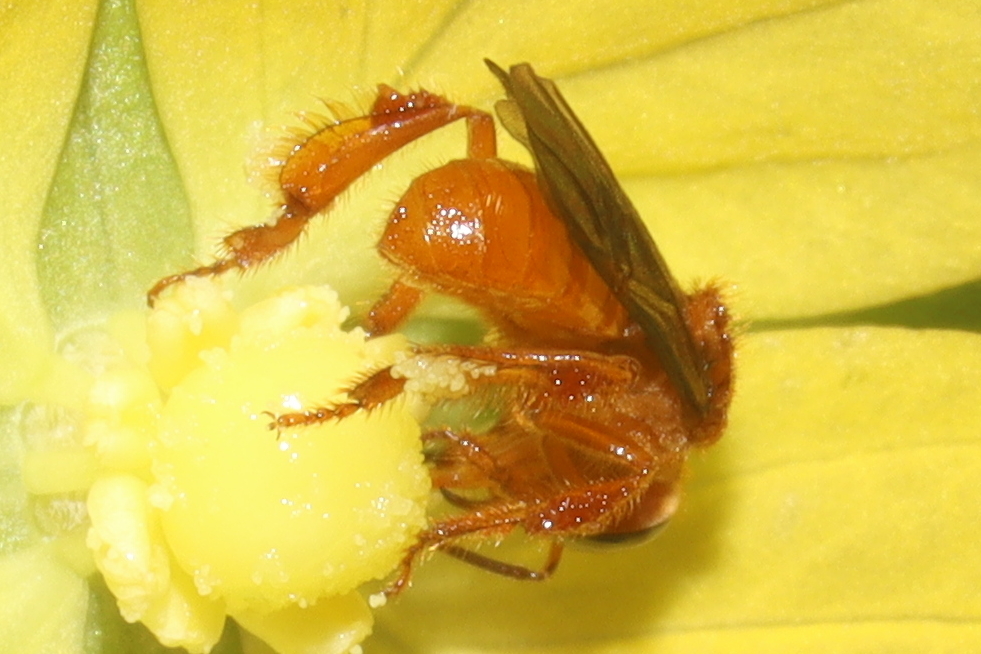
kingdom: Animalia
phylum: Arthropoda
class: Insecta
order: Hymenoptera
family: Apidae
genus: Trigona
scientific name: Trigona muzoensis
